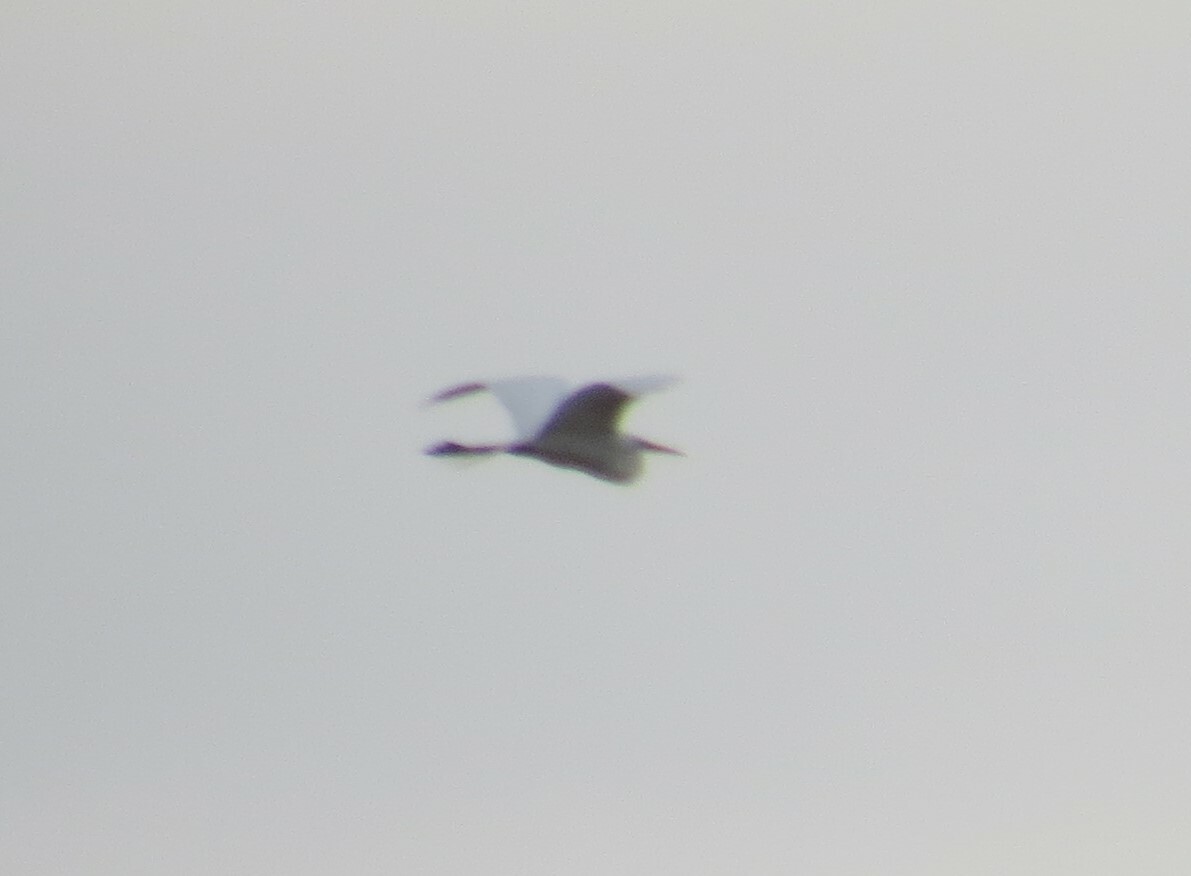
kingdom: Animalia
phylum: Chordata
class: Aves
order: Pelecaniformes
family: Ardeidae
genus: Ardea
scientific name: Ardea alba
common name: Great egret
